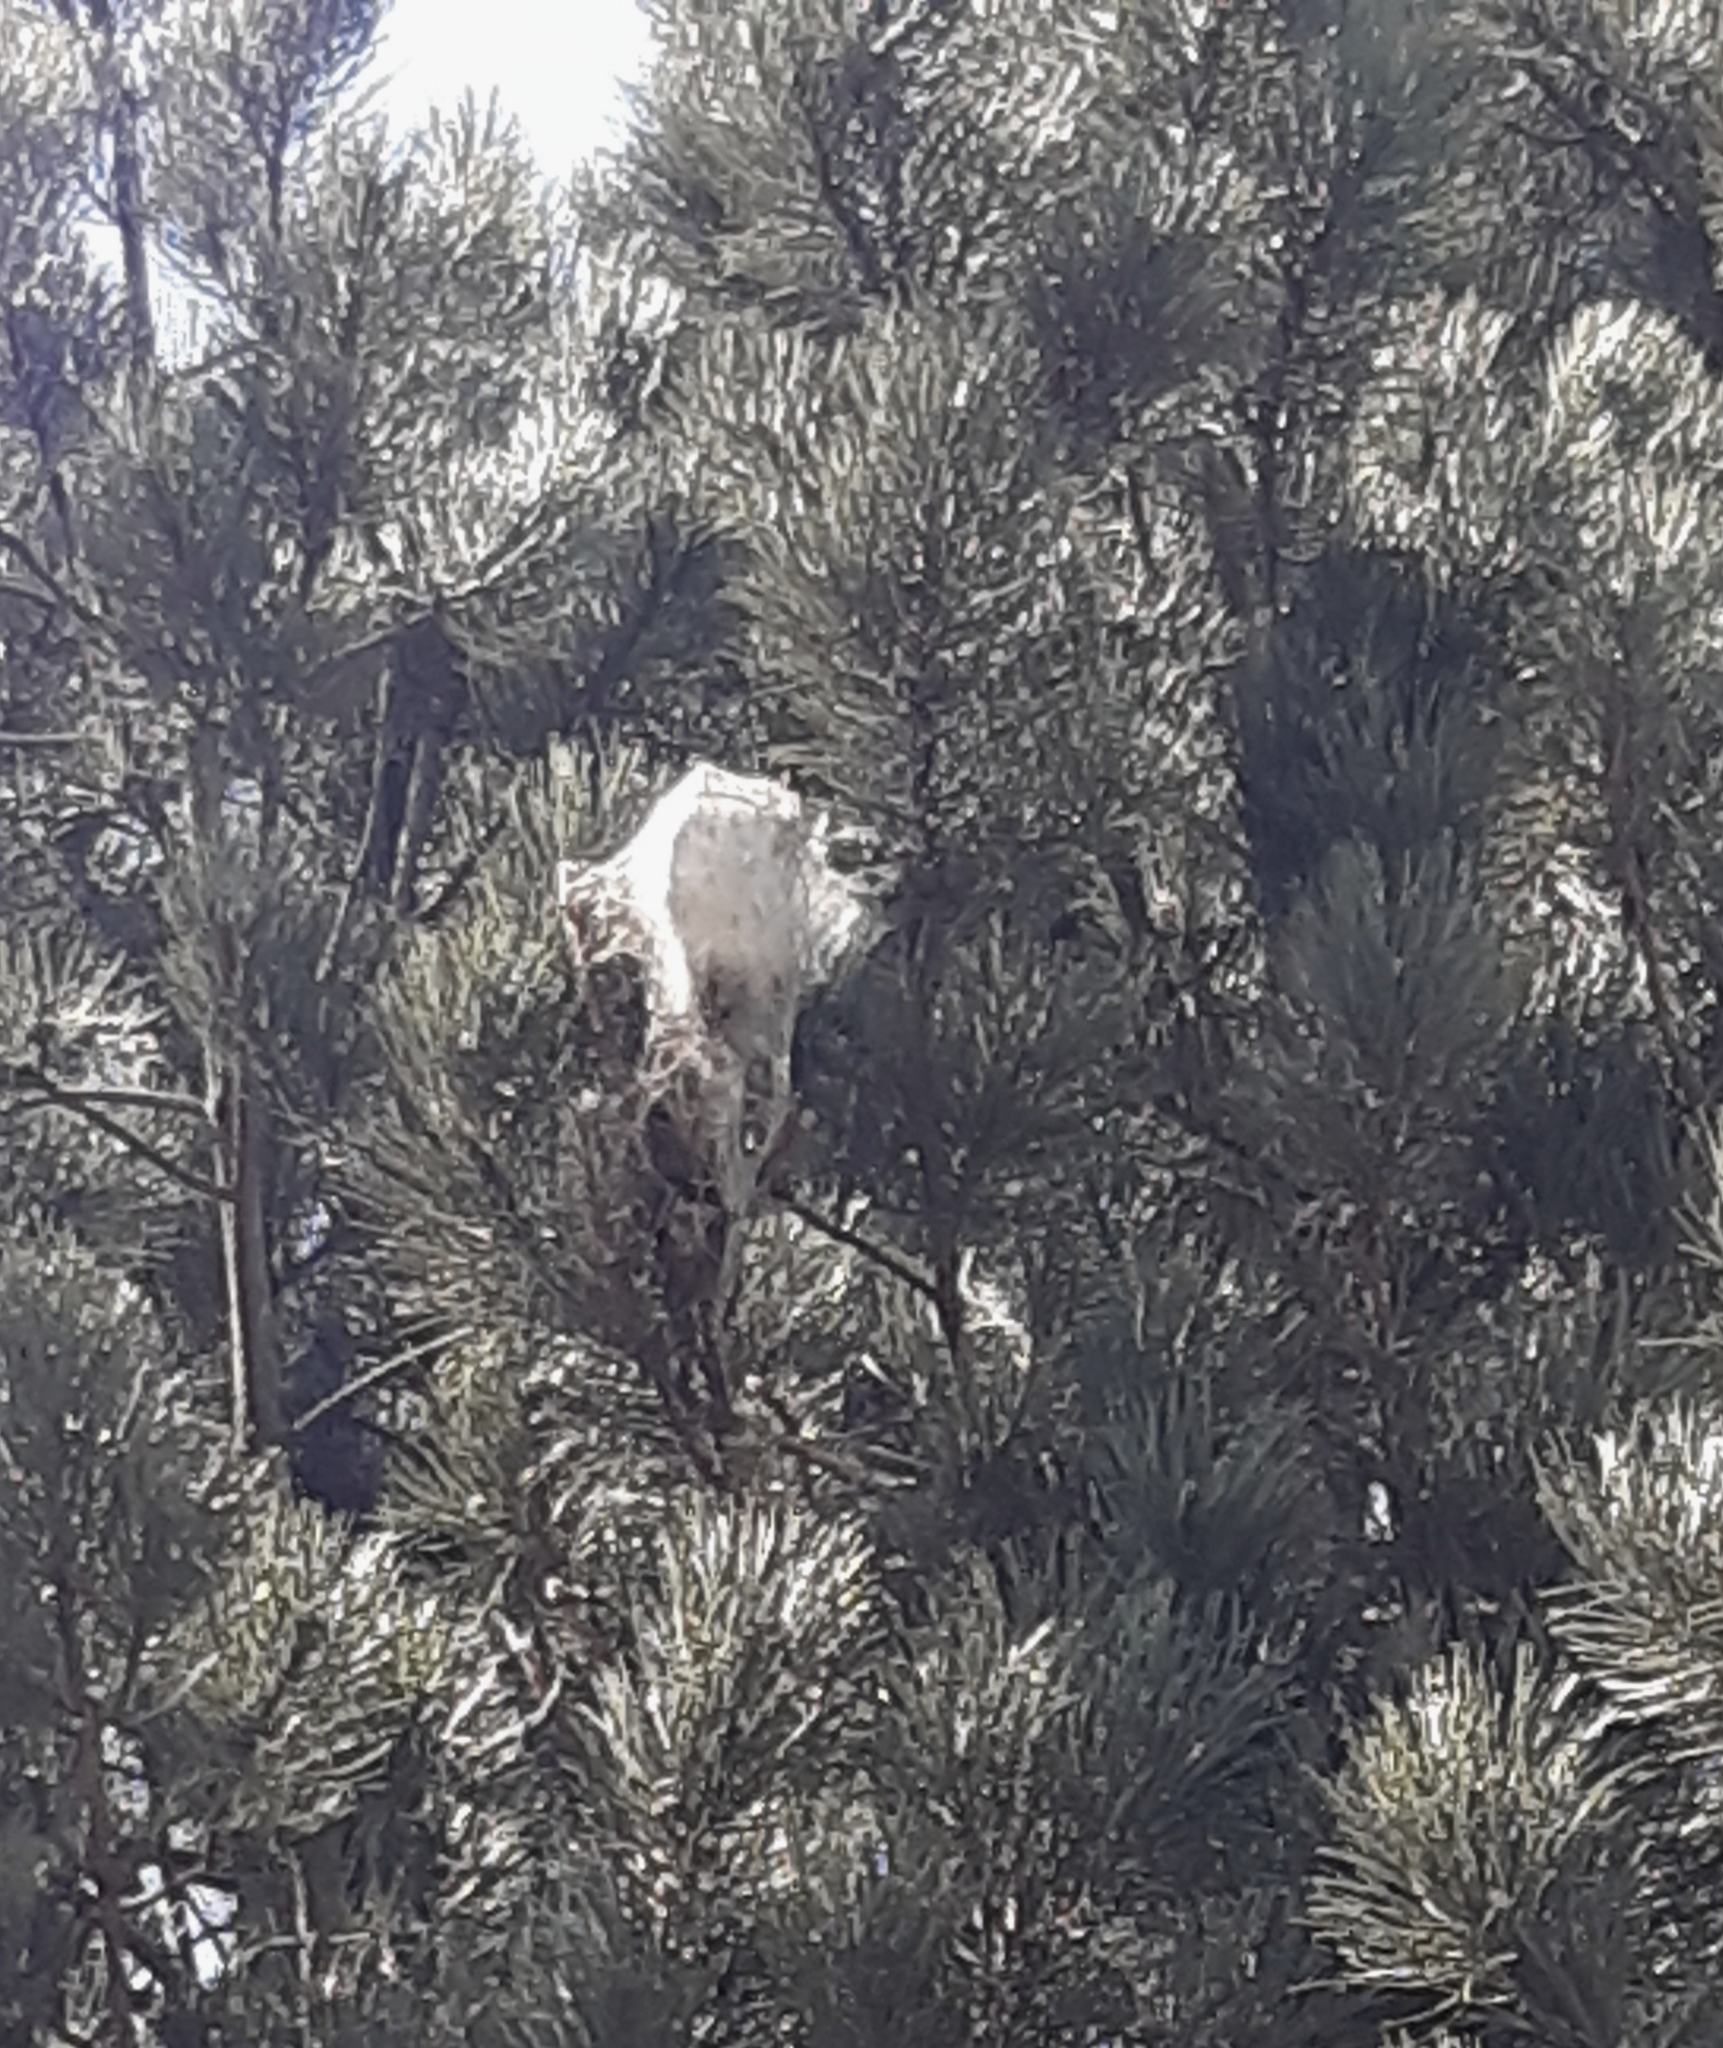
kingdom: Animalia
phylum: Arthropoda
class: Insecta
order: Lepidoptera
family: Notodontidae
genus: Thaumetopoea
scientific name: Thaumetopoea pityocampa
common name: Pine processionary
